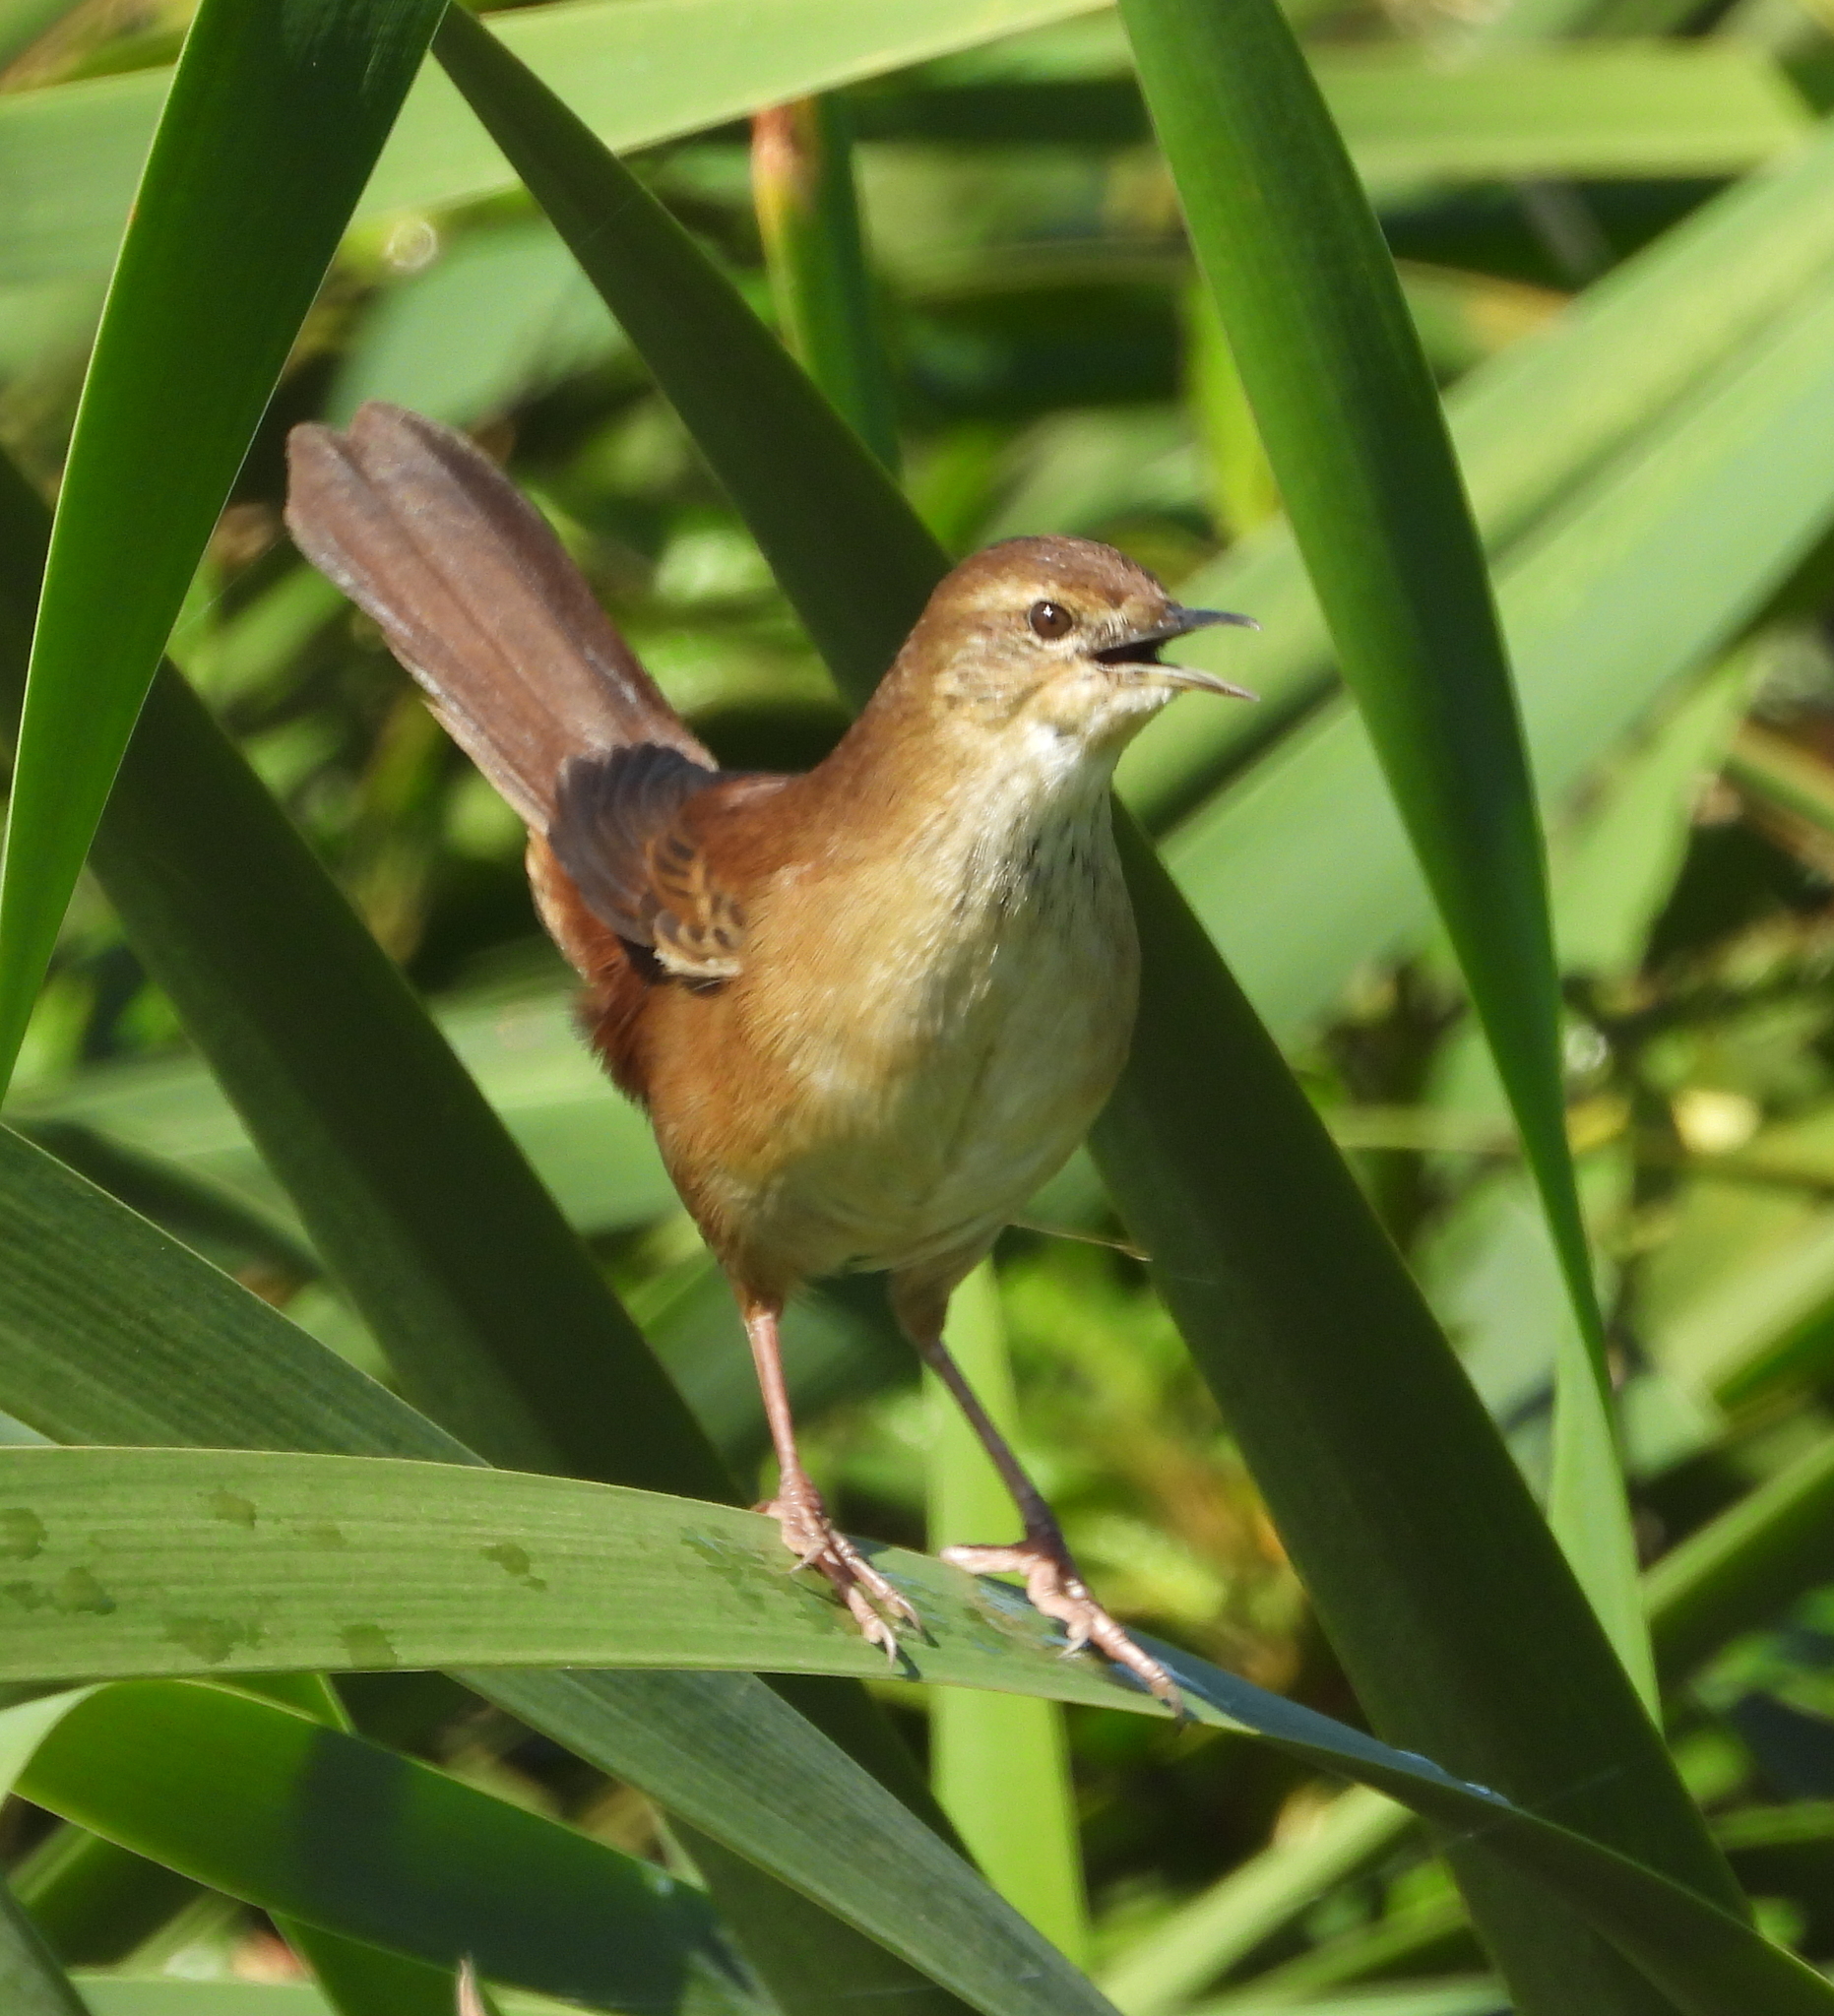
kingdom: Animalia
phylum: Chordata
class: Aves
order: Passeriformes
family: Locustellidae
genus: Bradypterus
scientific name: Bradypterus baboecala
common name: Little rush warbler
